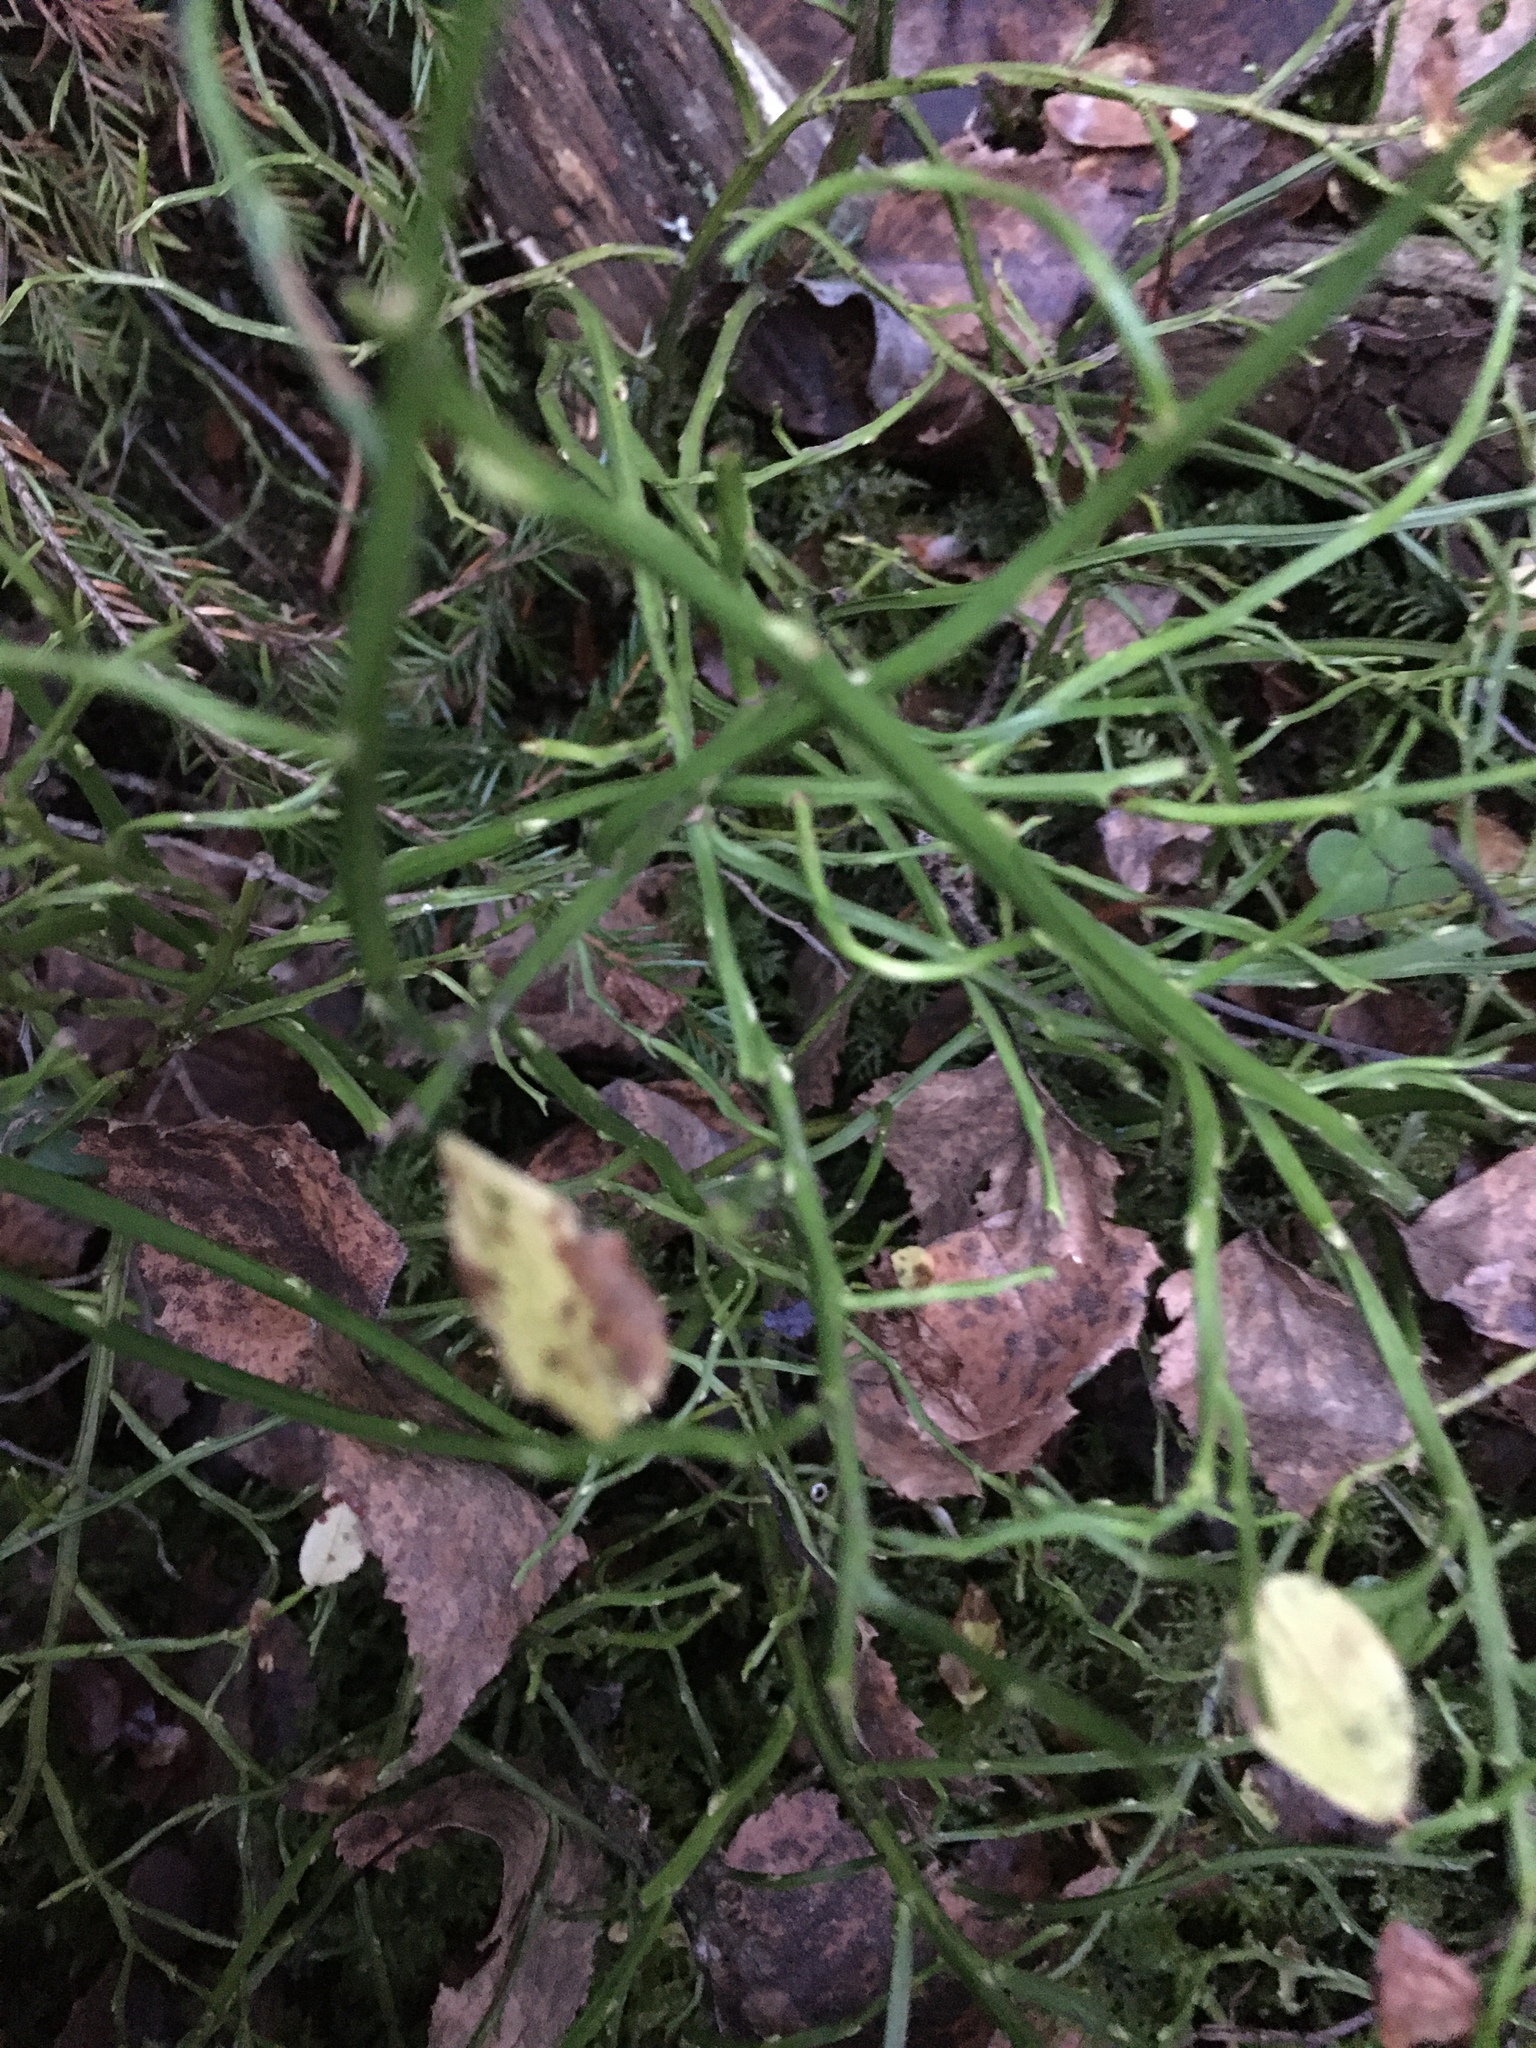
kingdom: Plantae
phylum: Tracheophyta
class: Magnoliopsida
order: Ericales
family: Ericaceae
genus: Vaccinium
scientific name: Vaccinium myrtillus
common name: Bilberry
